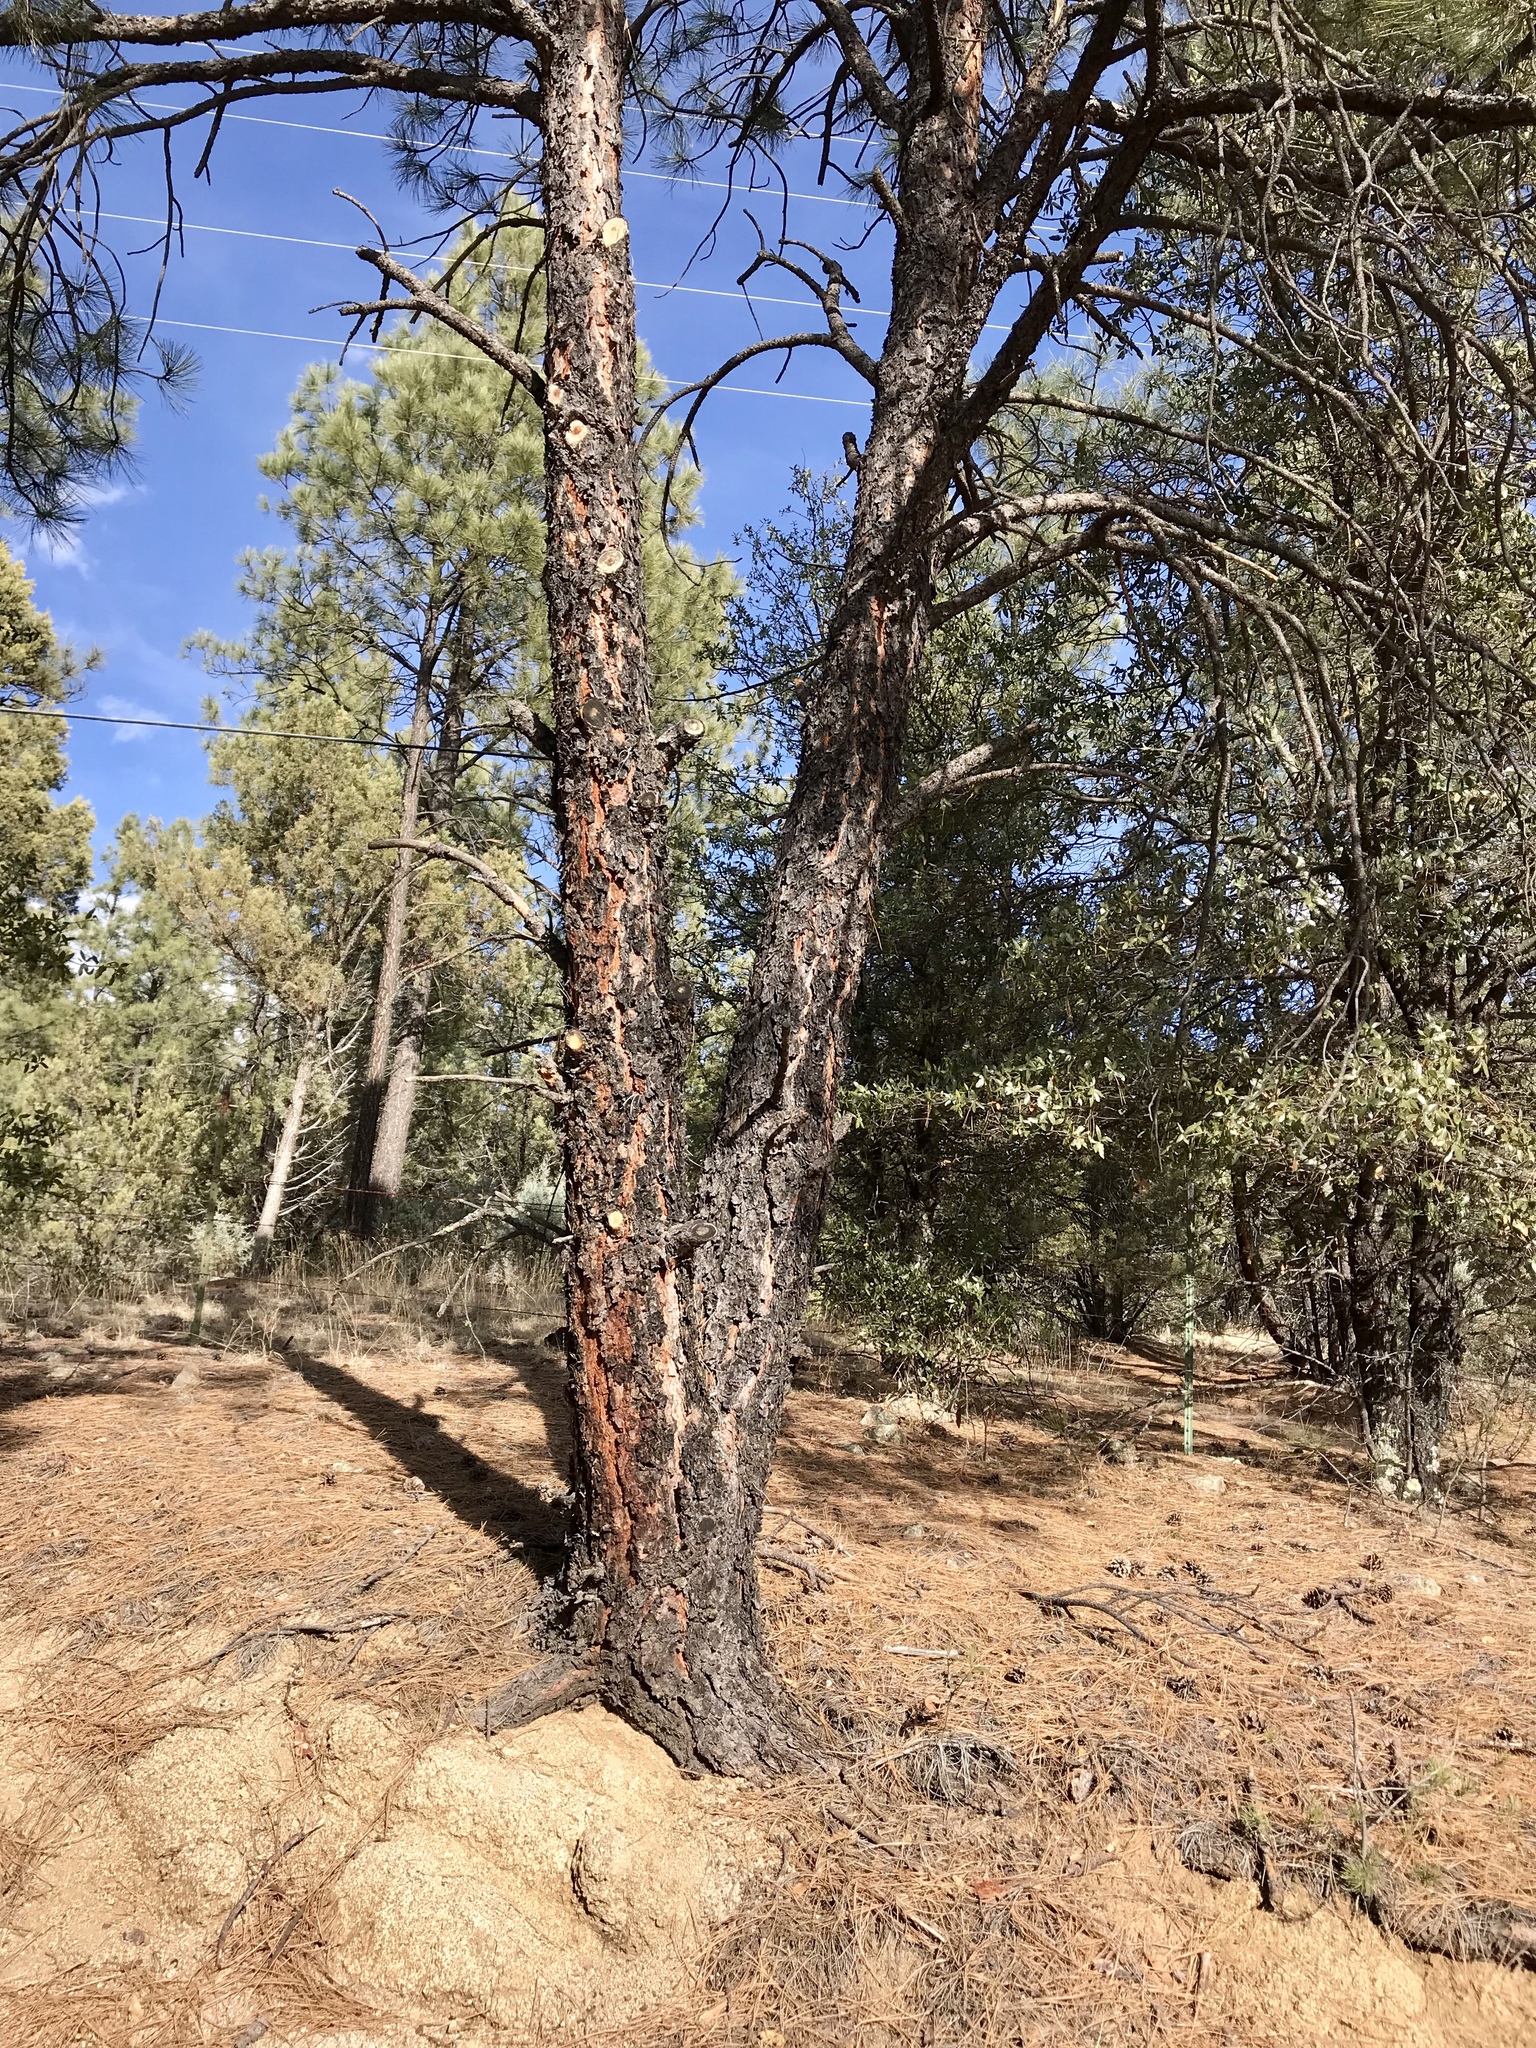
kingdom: Plantae
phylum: Tracheophyta
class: Pinopsida
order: Pinales
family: Pinaceae
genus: Pinus
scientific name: Pinus ponderosa
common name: Western yellow-pine
